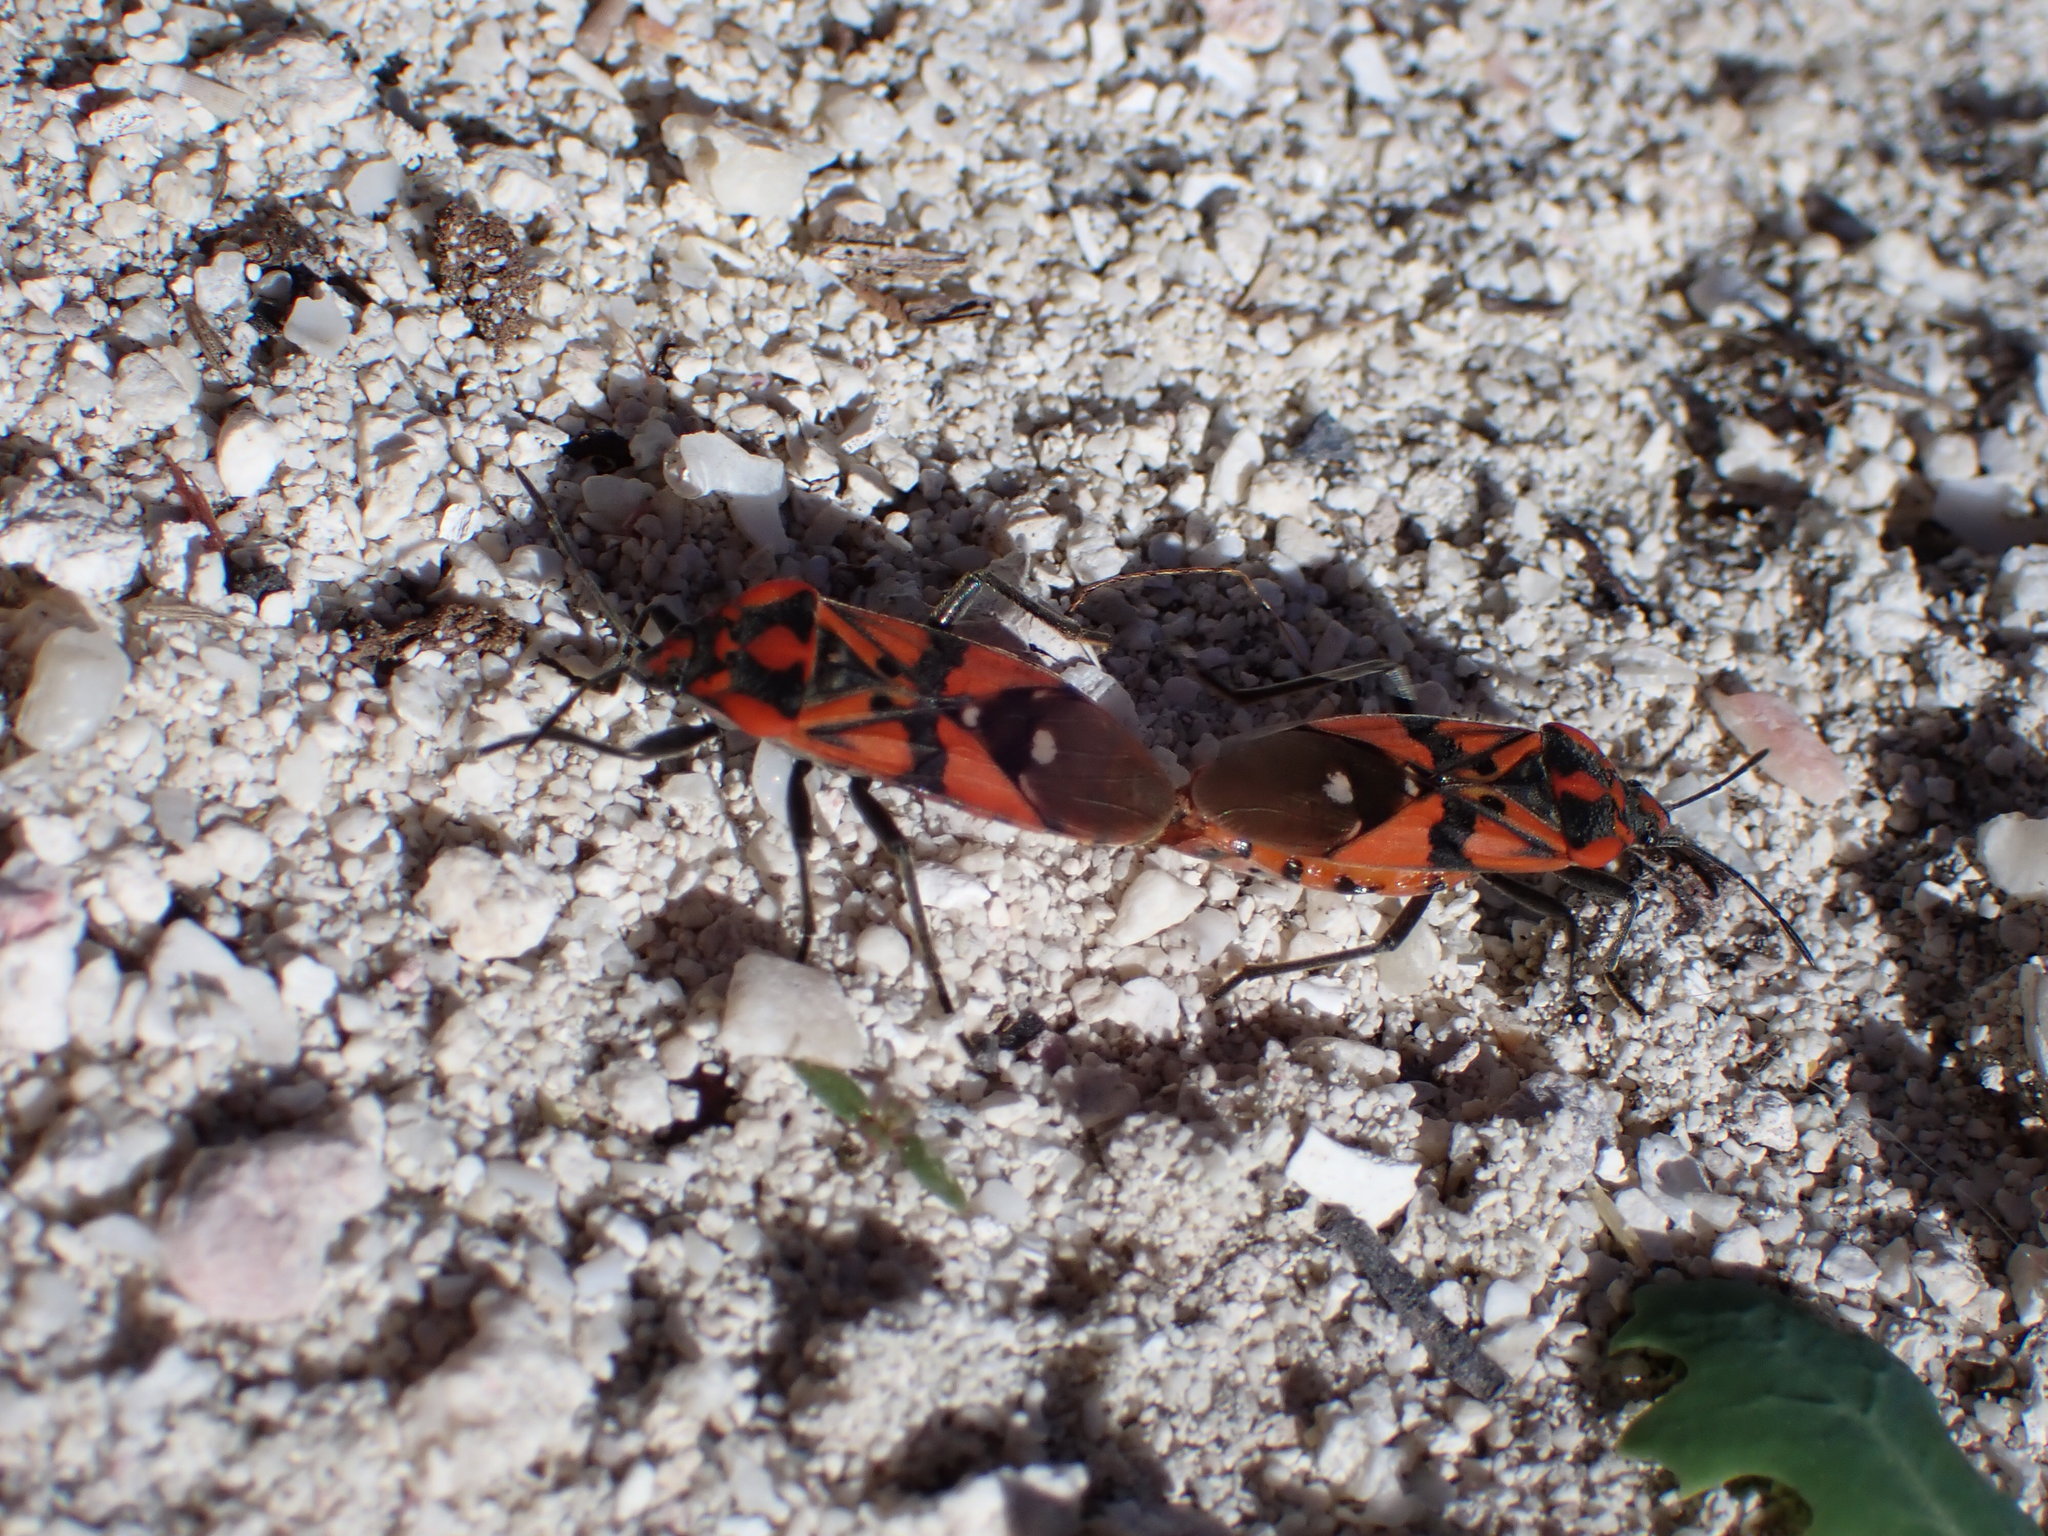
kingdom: Animalia
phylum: Arthropoda
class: Insecta
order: Hemiptera
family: Lygaeidae
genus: Spilostethus
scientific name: Spilostethus pandurus
